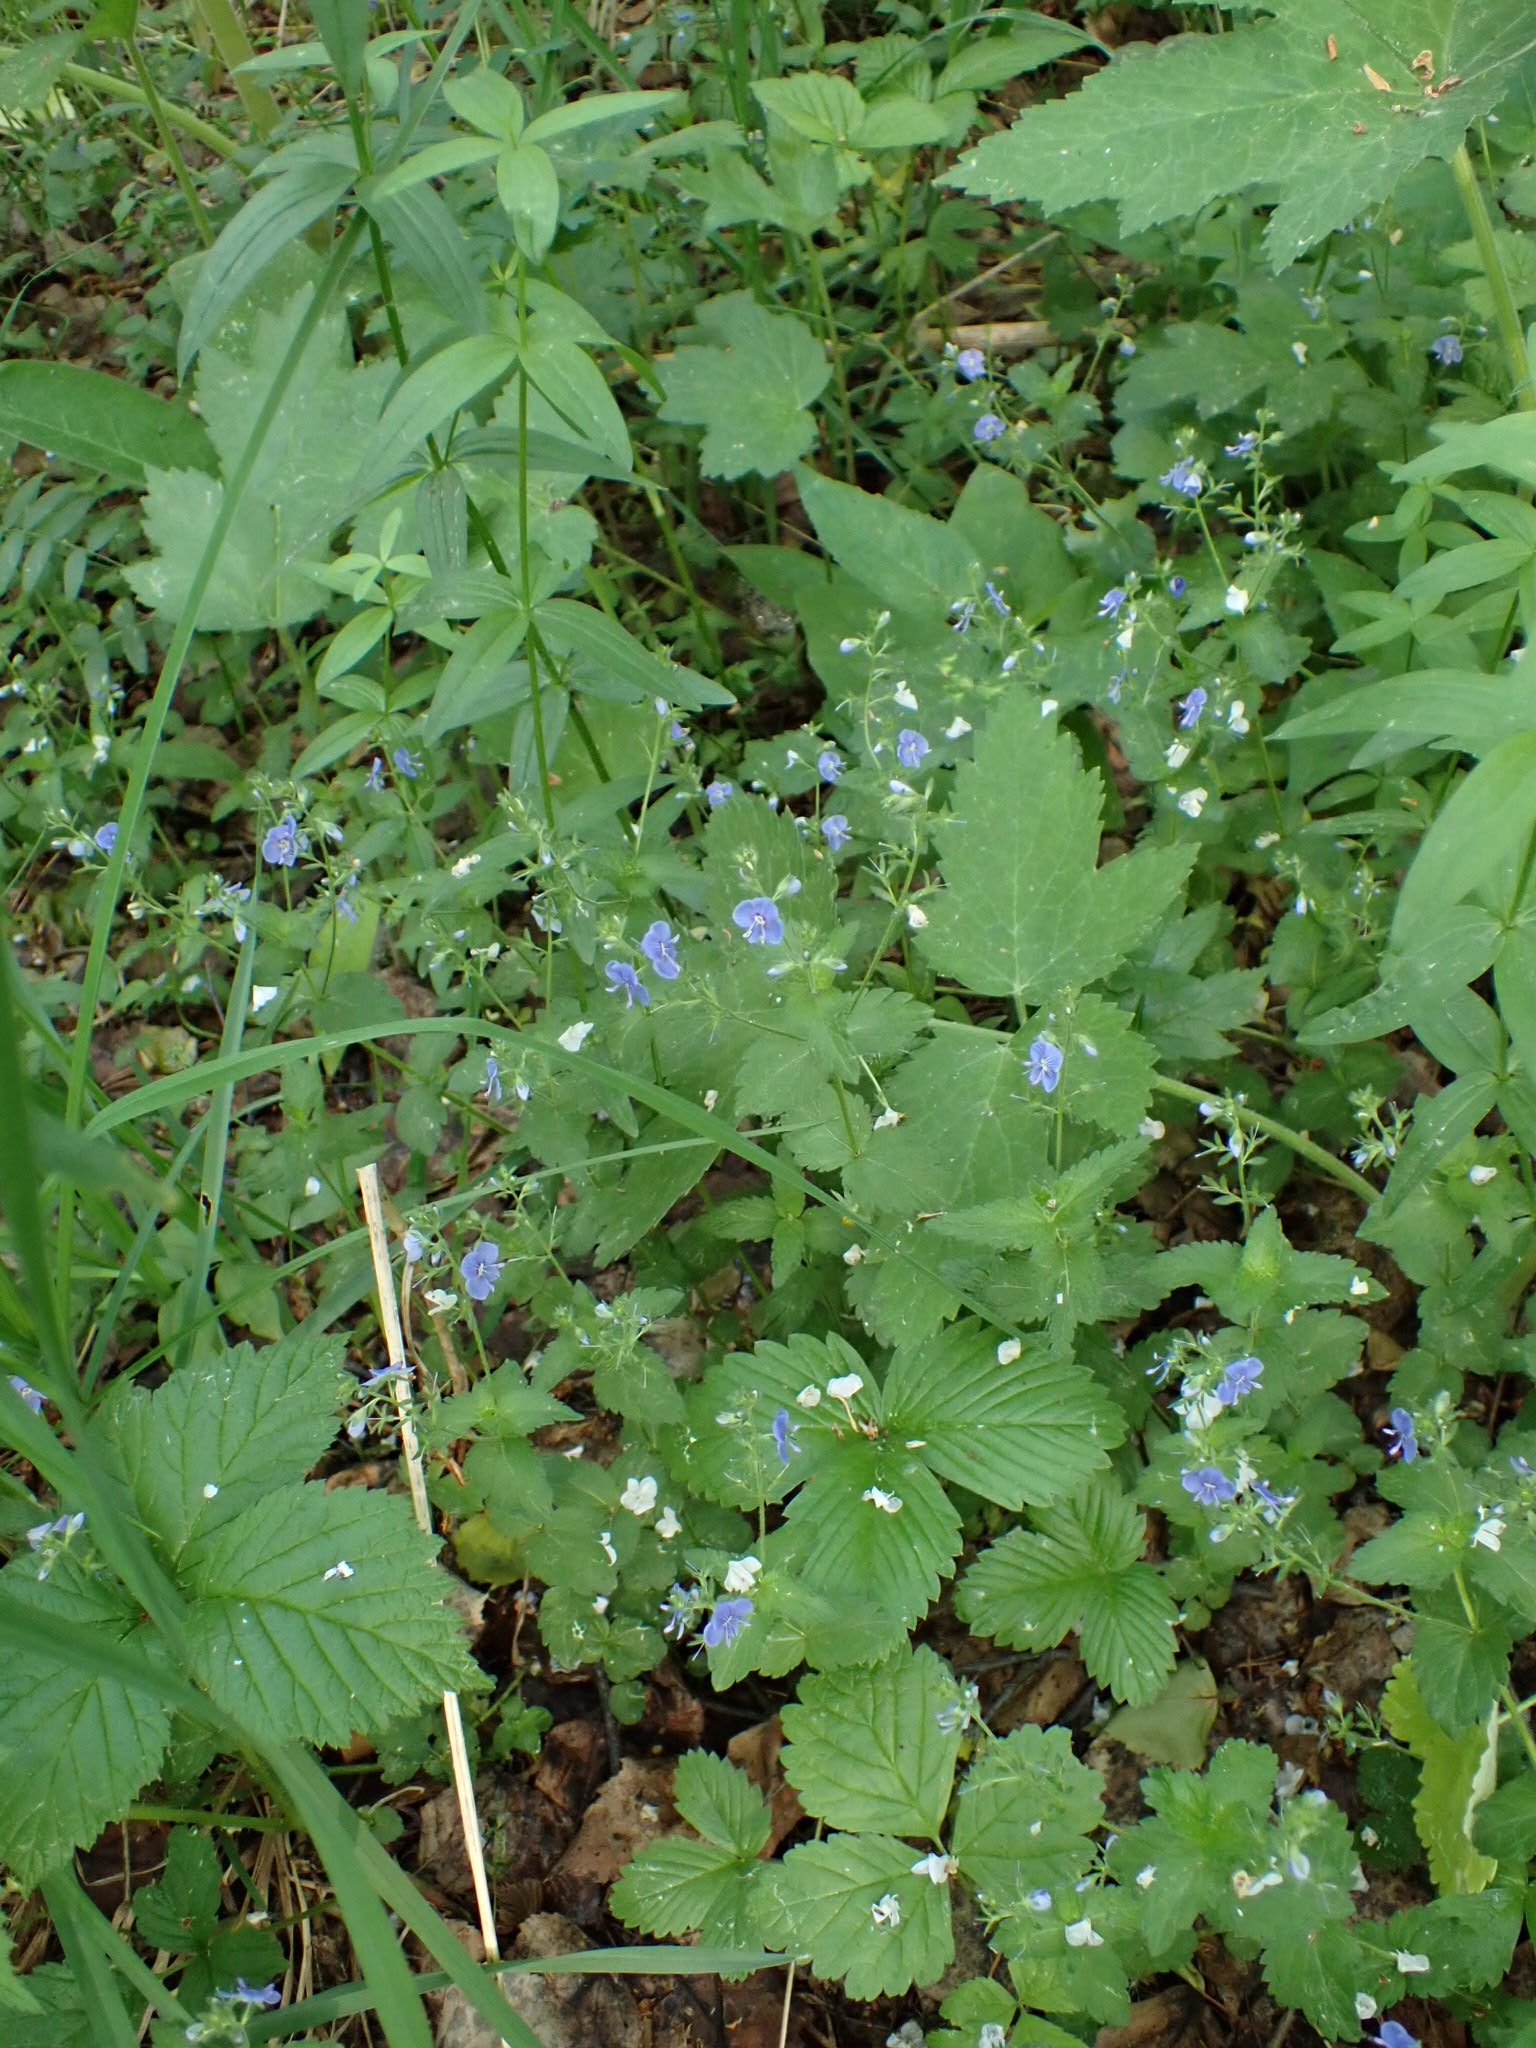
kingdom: Plantae
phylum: Tracheophyta
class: Magnoliopsida
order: Lamiales
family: Plantaginaceae
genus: Veronica
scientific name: Veronica chamaedrys
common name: Germander speedwell
